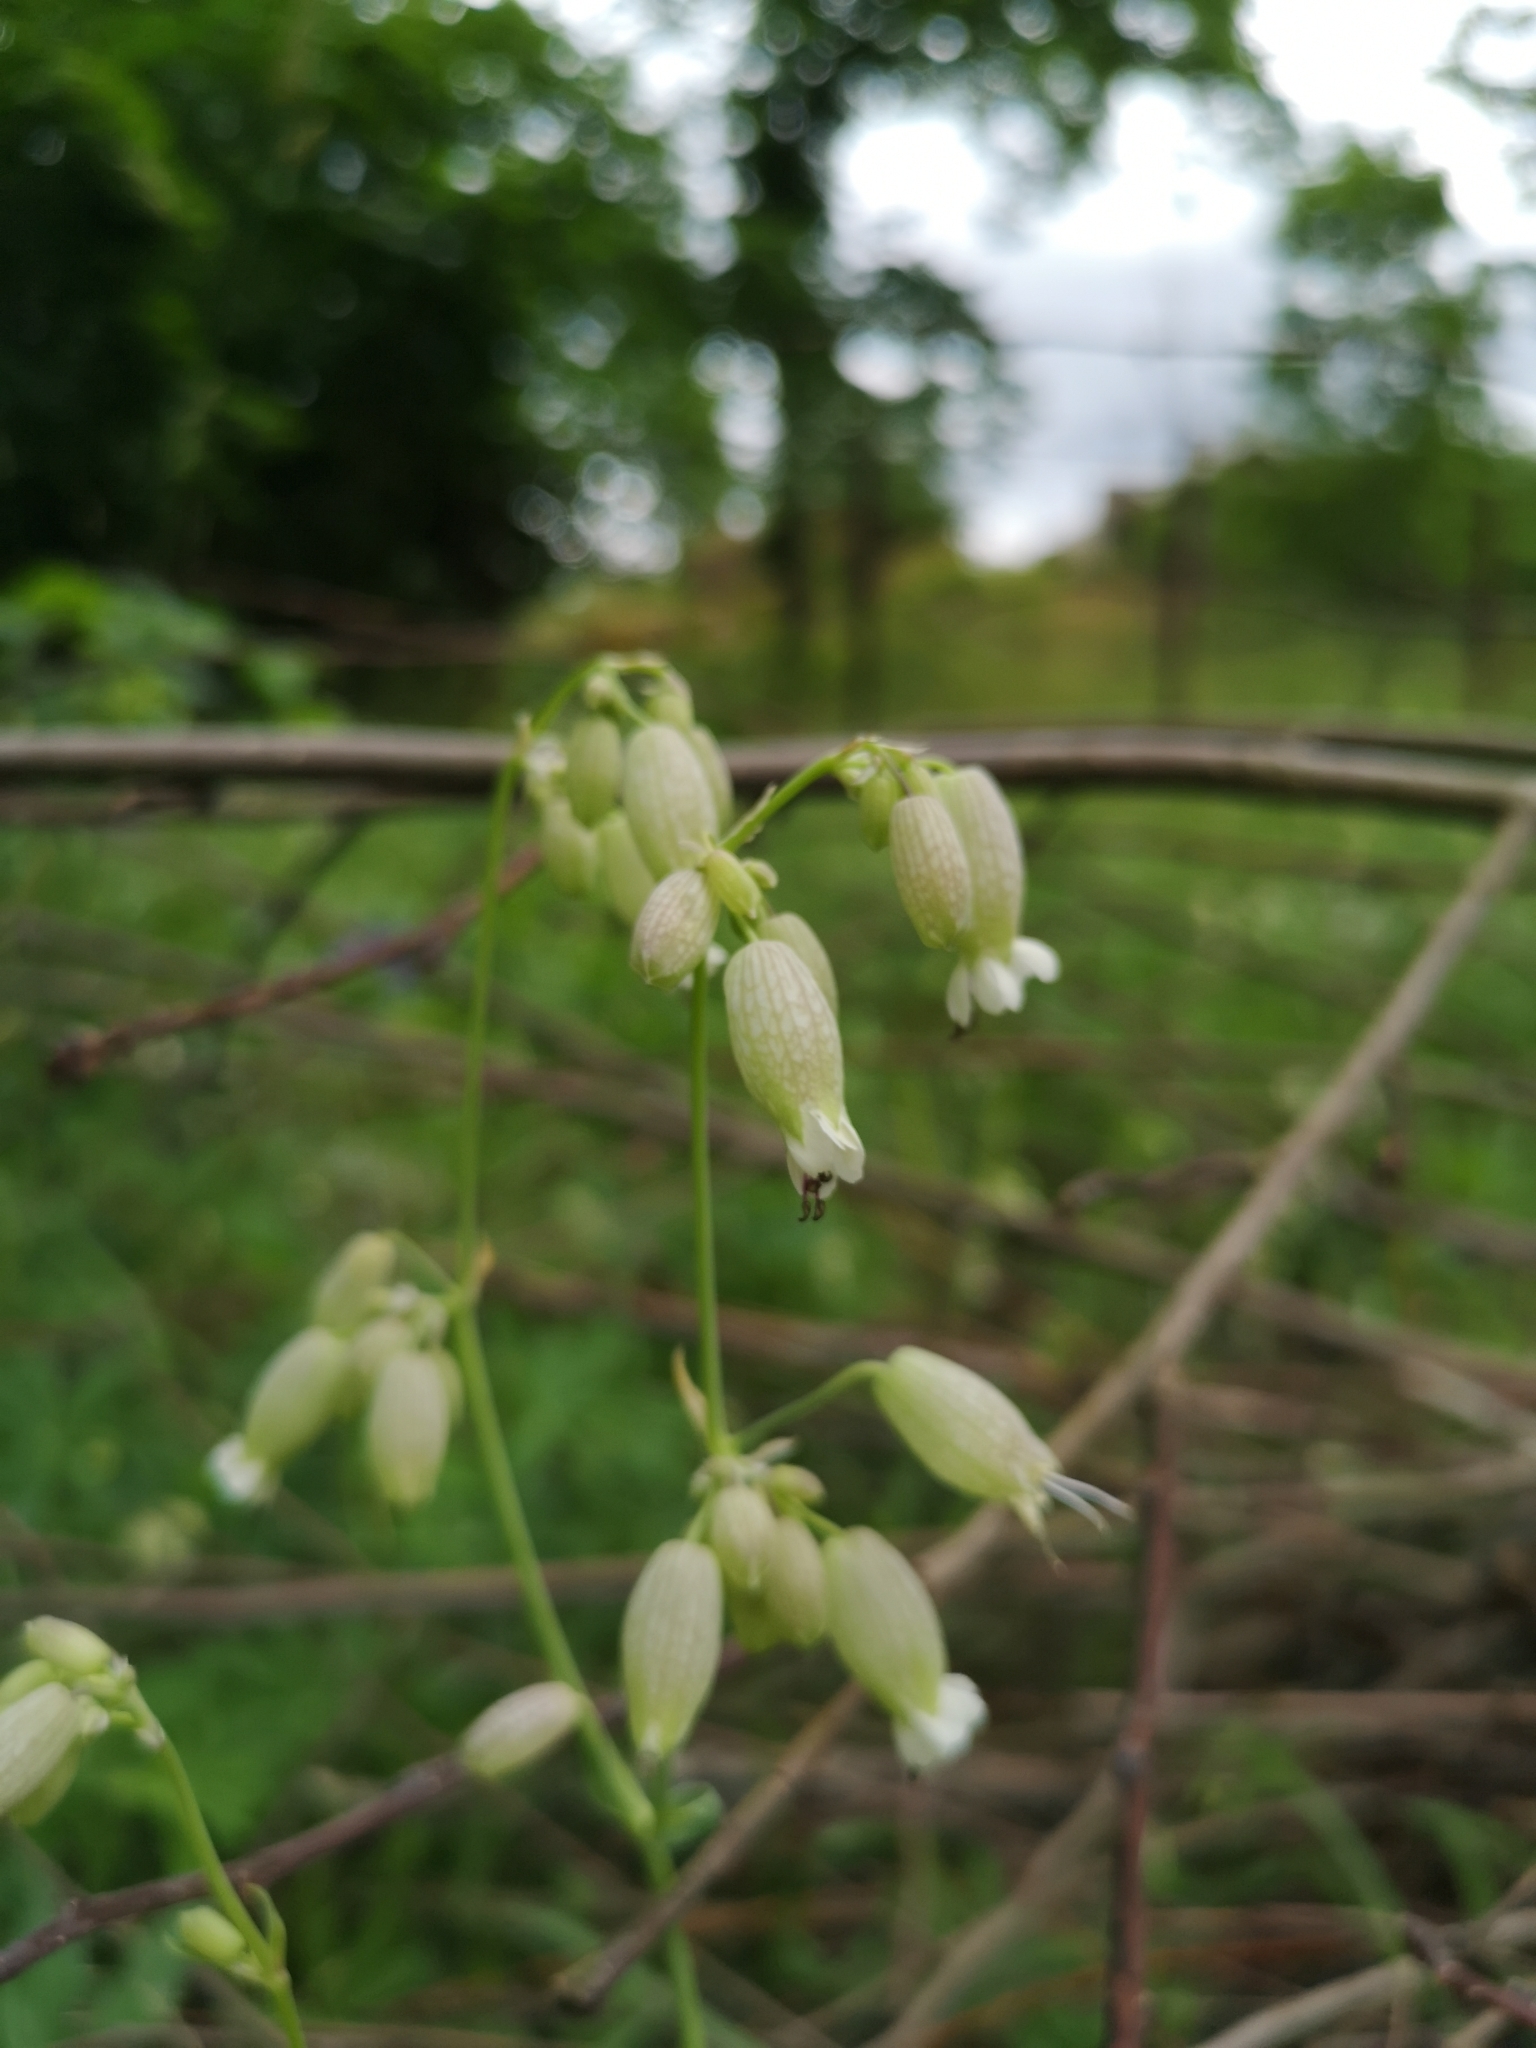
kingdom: Plantae
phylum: Tracheophyta
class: Magnoliopsida
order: Caryophyllales
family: Caryophyllaceae
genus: Silene
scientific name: Silene vulgaris
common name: Bladder campion
